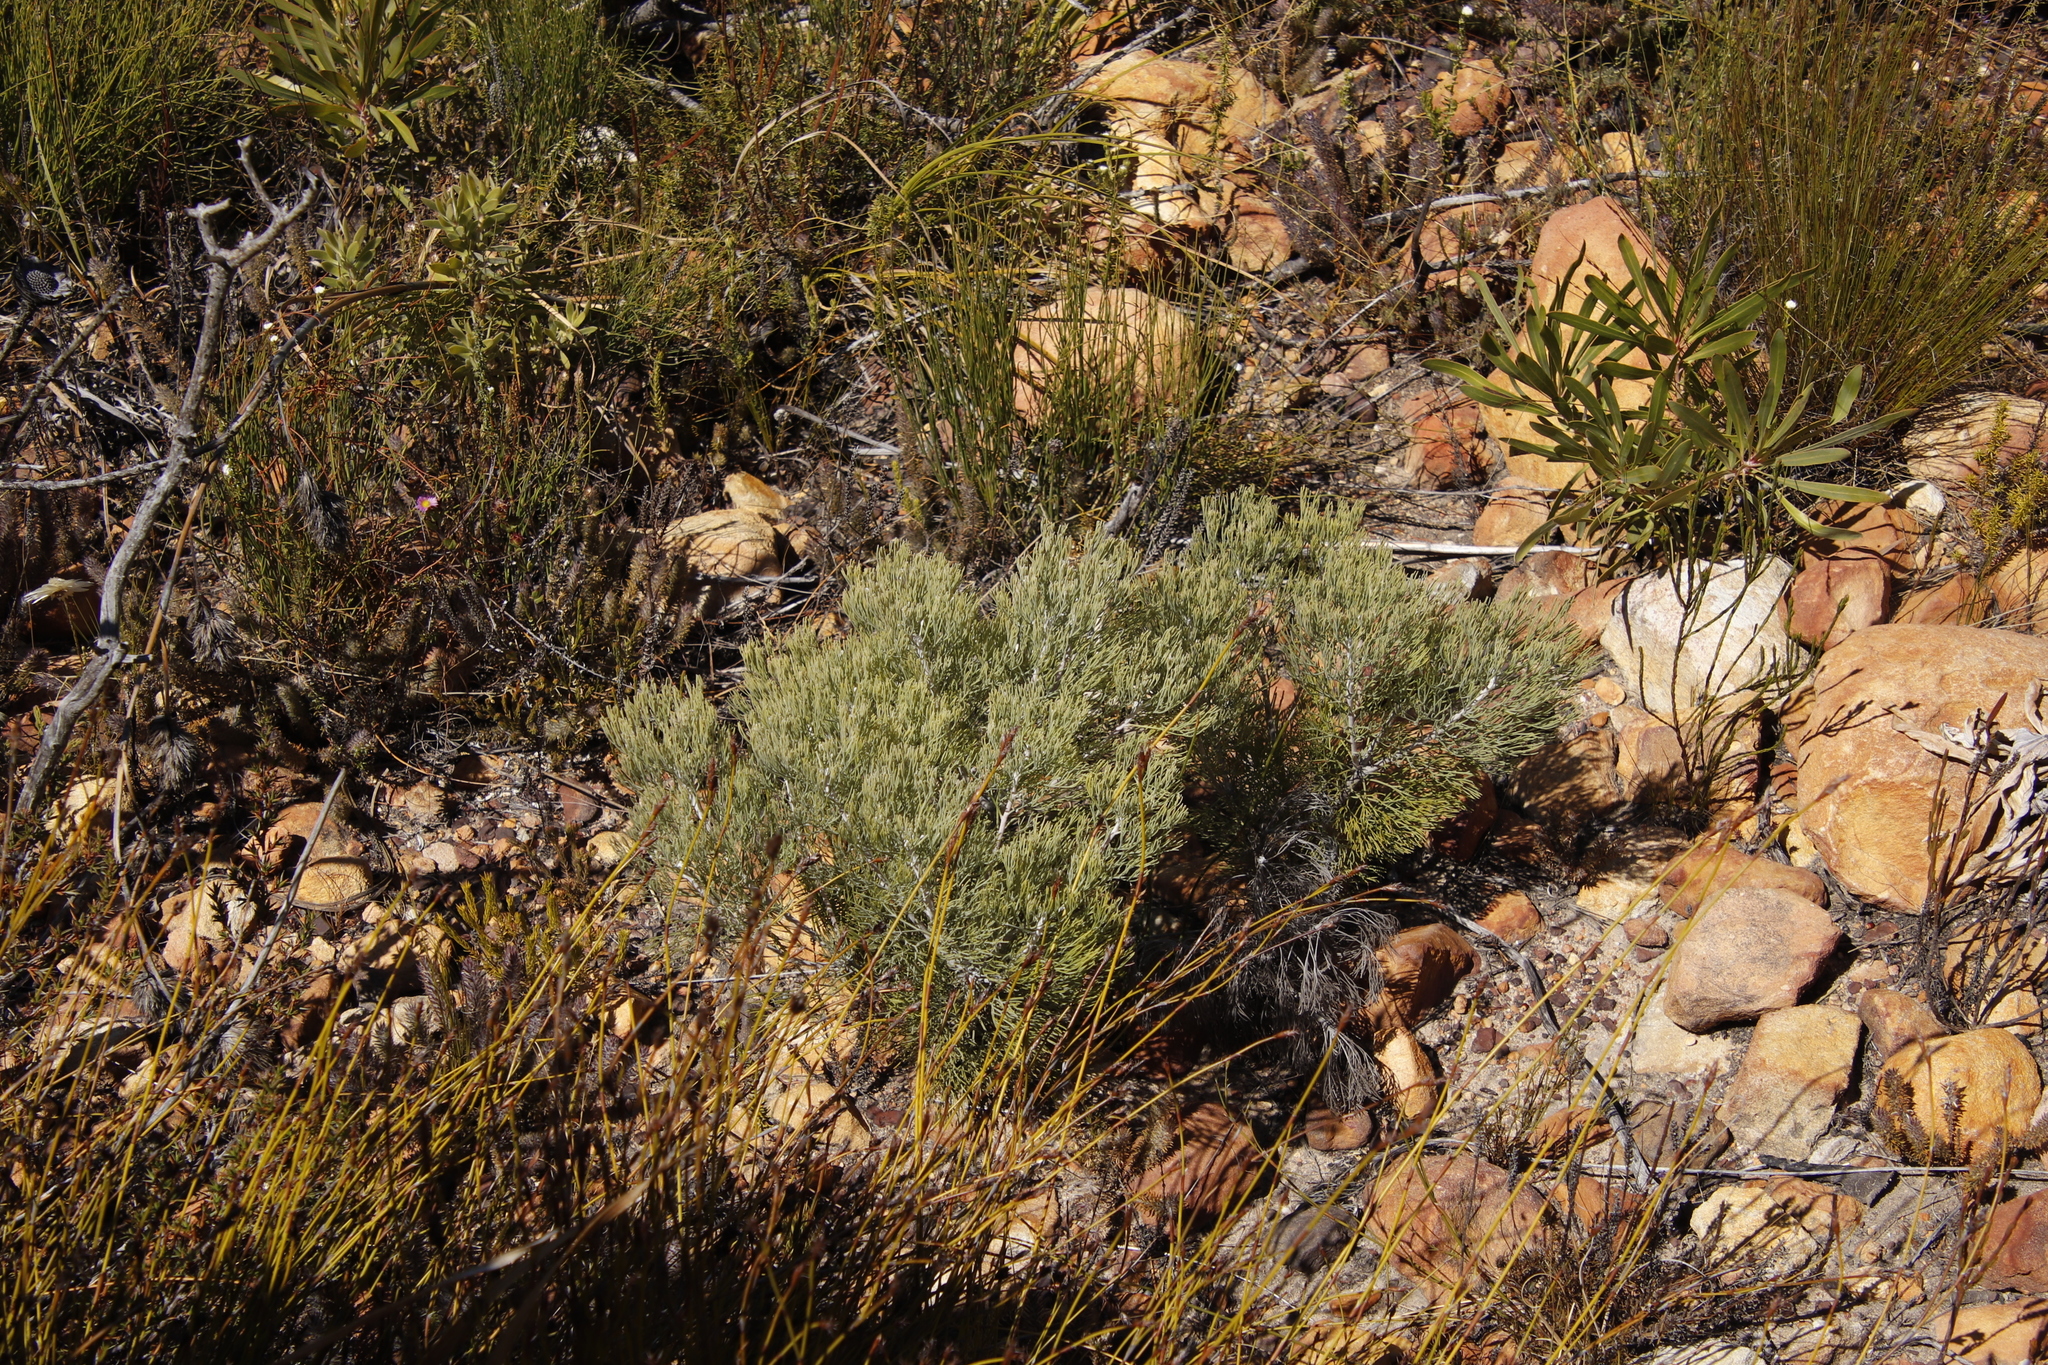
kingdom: Plantae
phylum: Tracheophyta
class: Magnoliopsida
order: Proteales
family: Proteaceae
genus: Paranomus
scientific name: Paranomus spicatus
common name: Kogelberg sceptre
